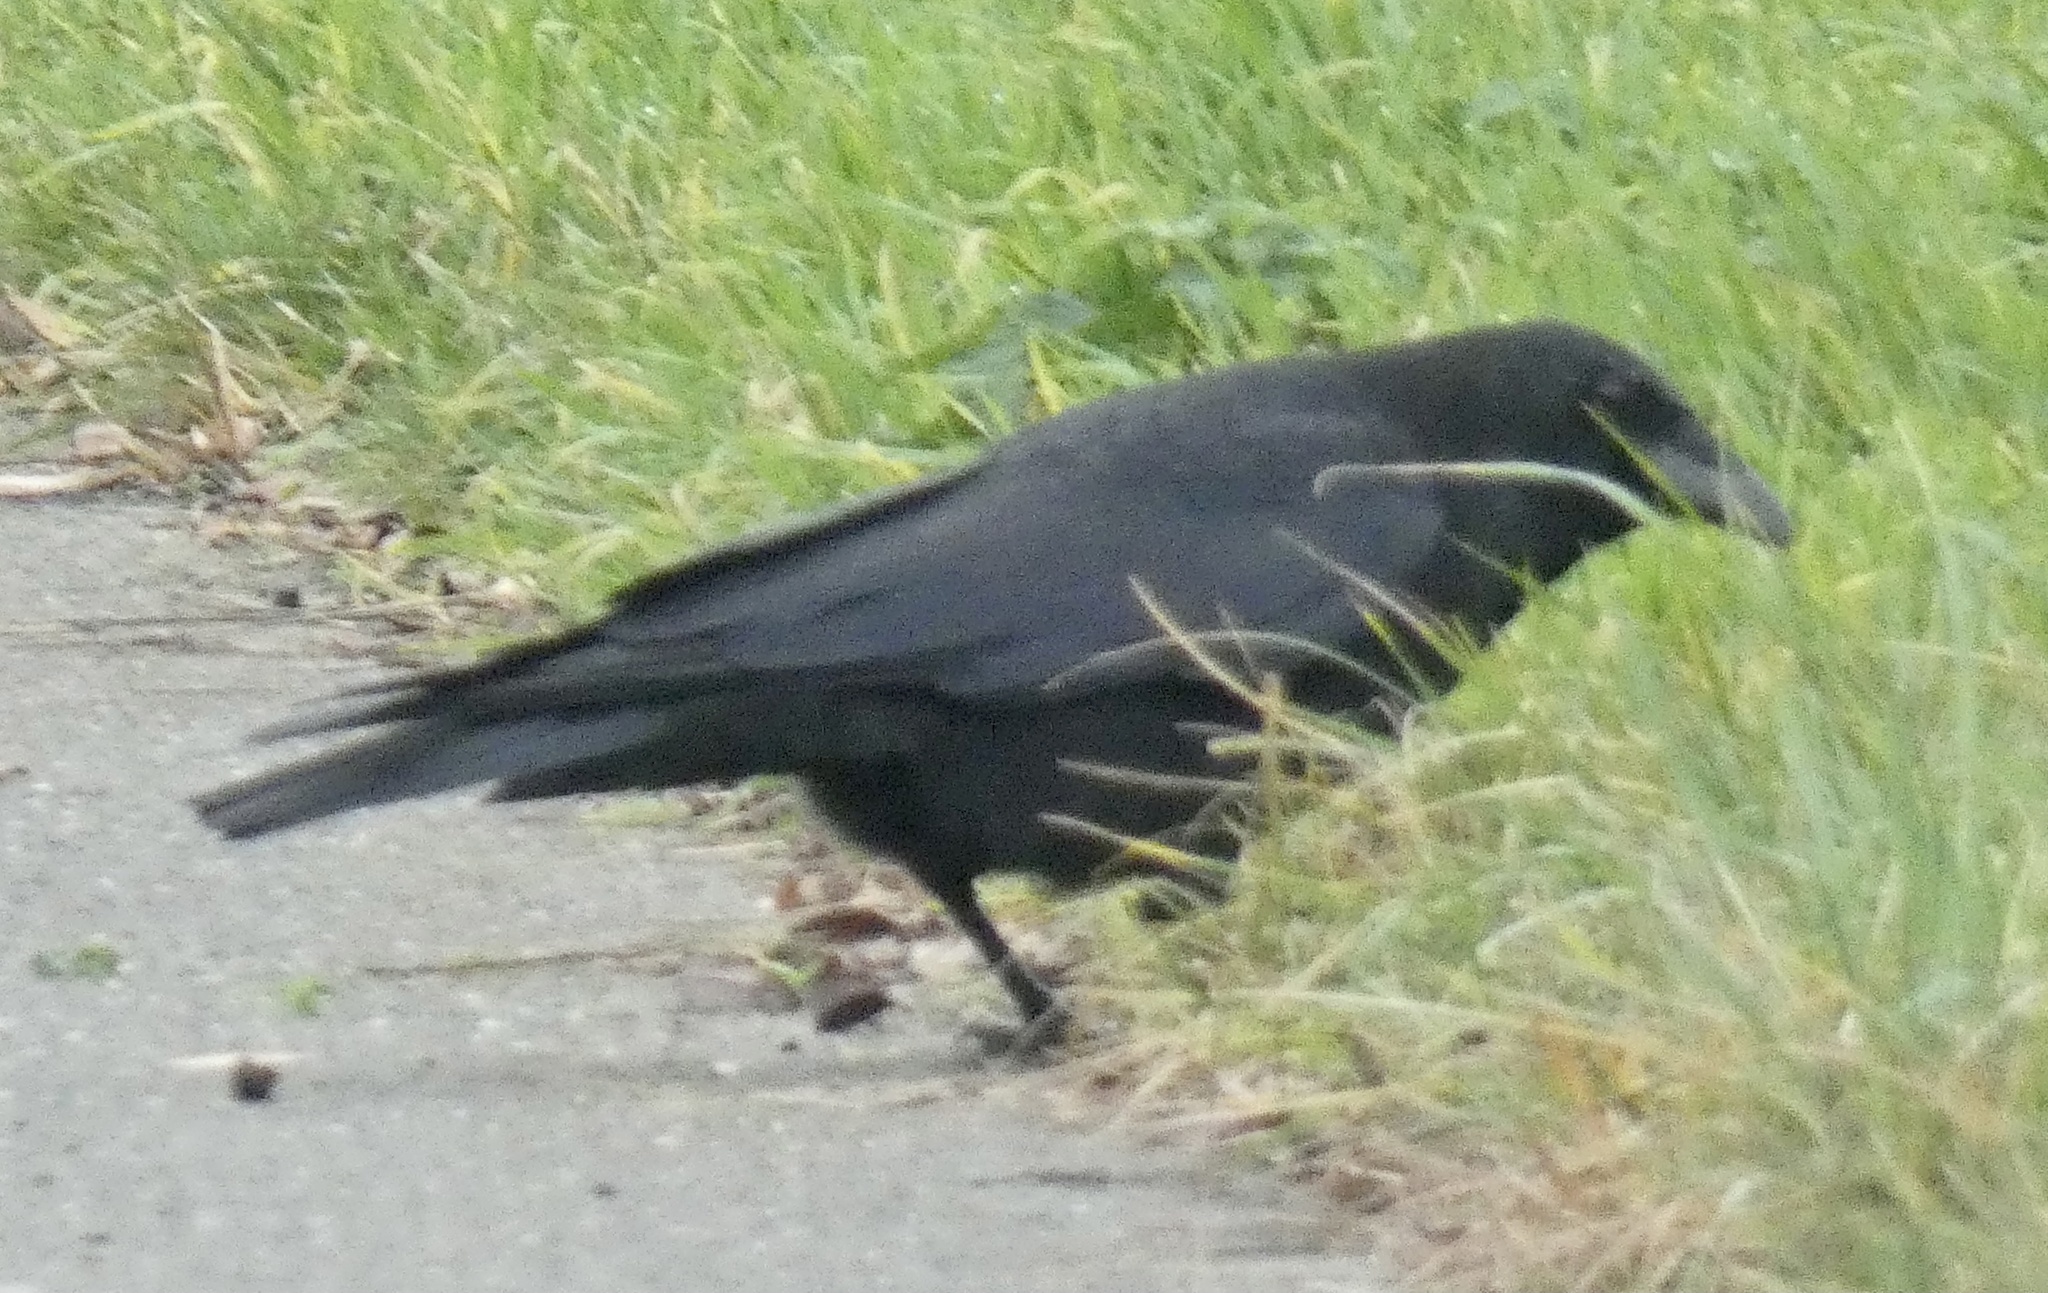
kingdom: Animalia
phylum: Chordata
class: Aves
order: Passeriformes
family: Corvidae
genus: Corvus
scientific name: Corvus corone
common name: Carrion crow
